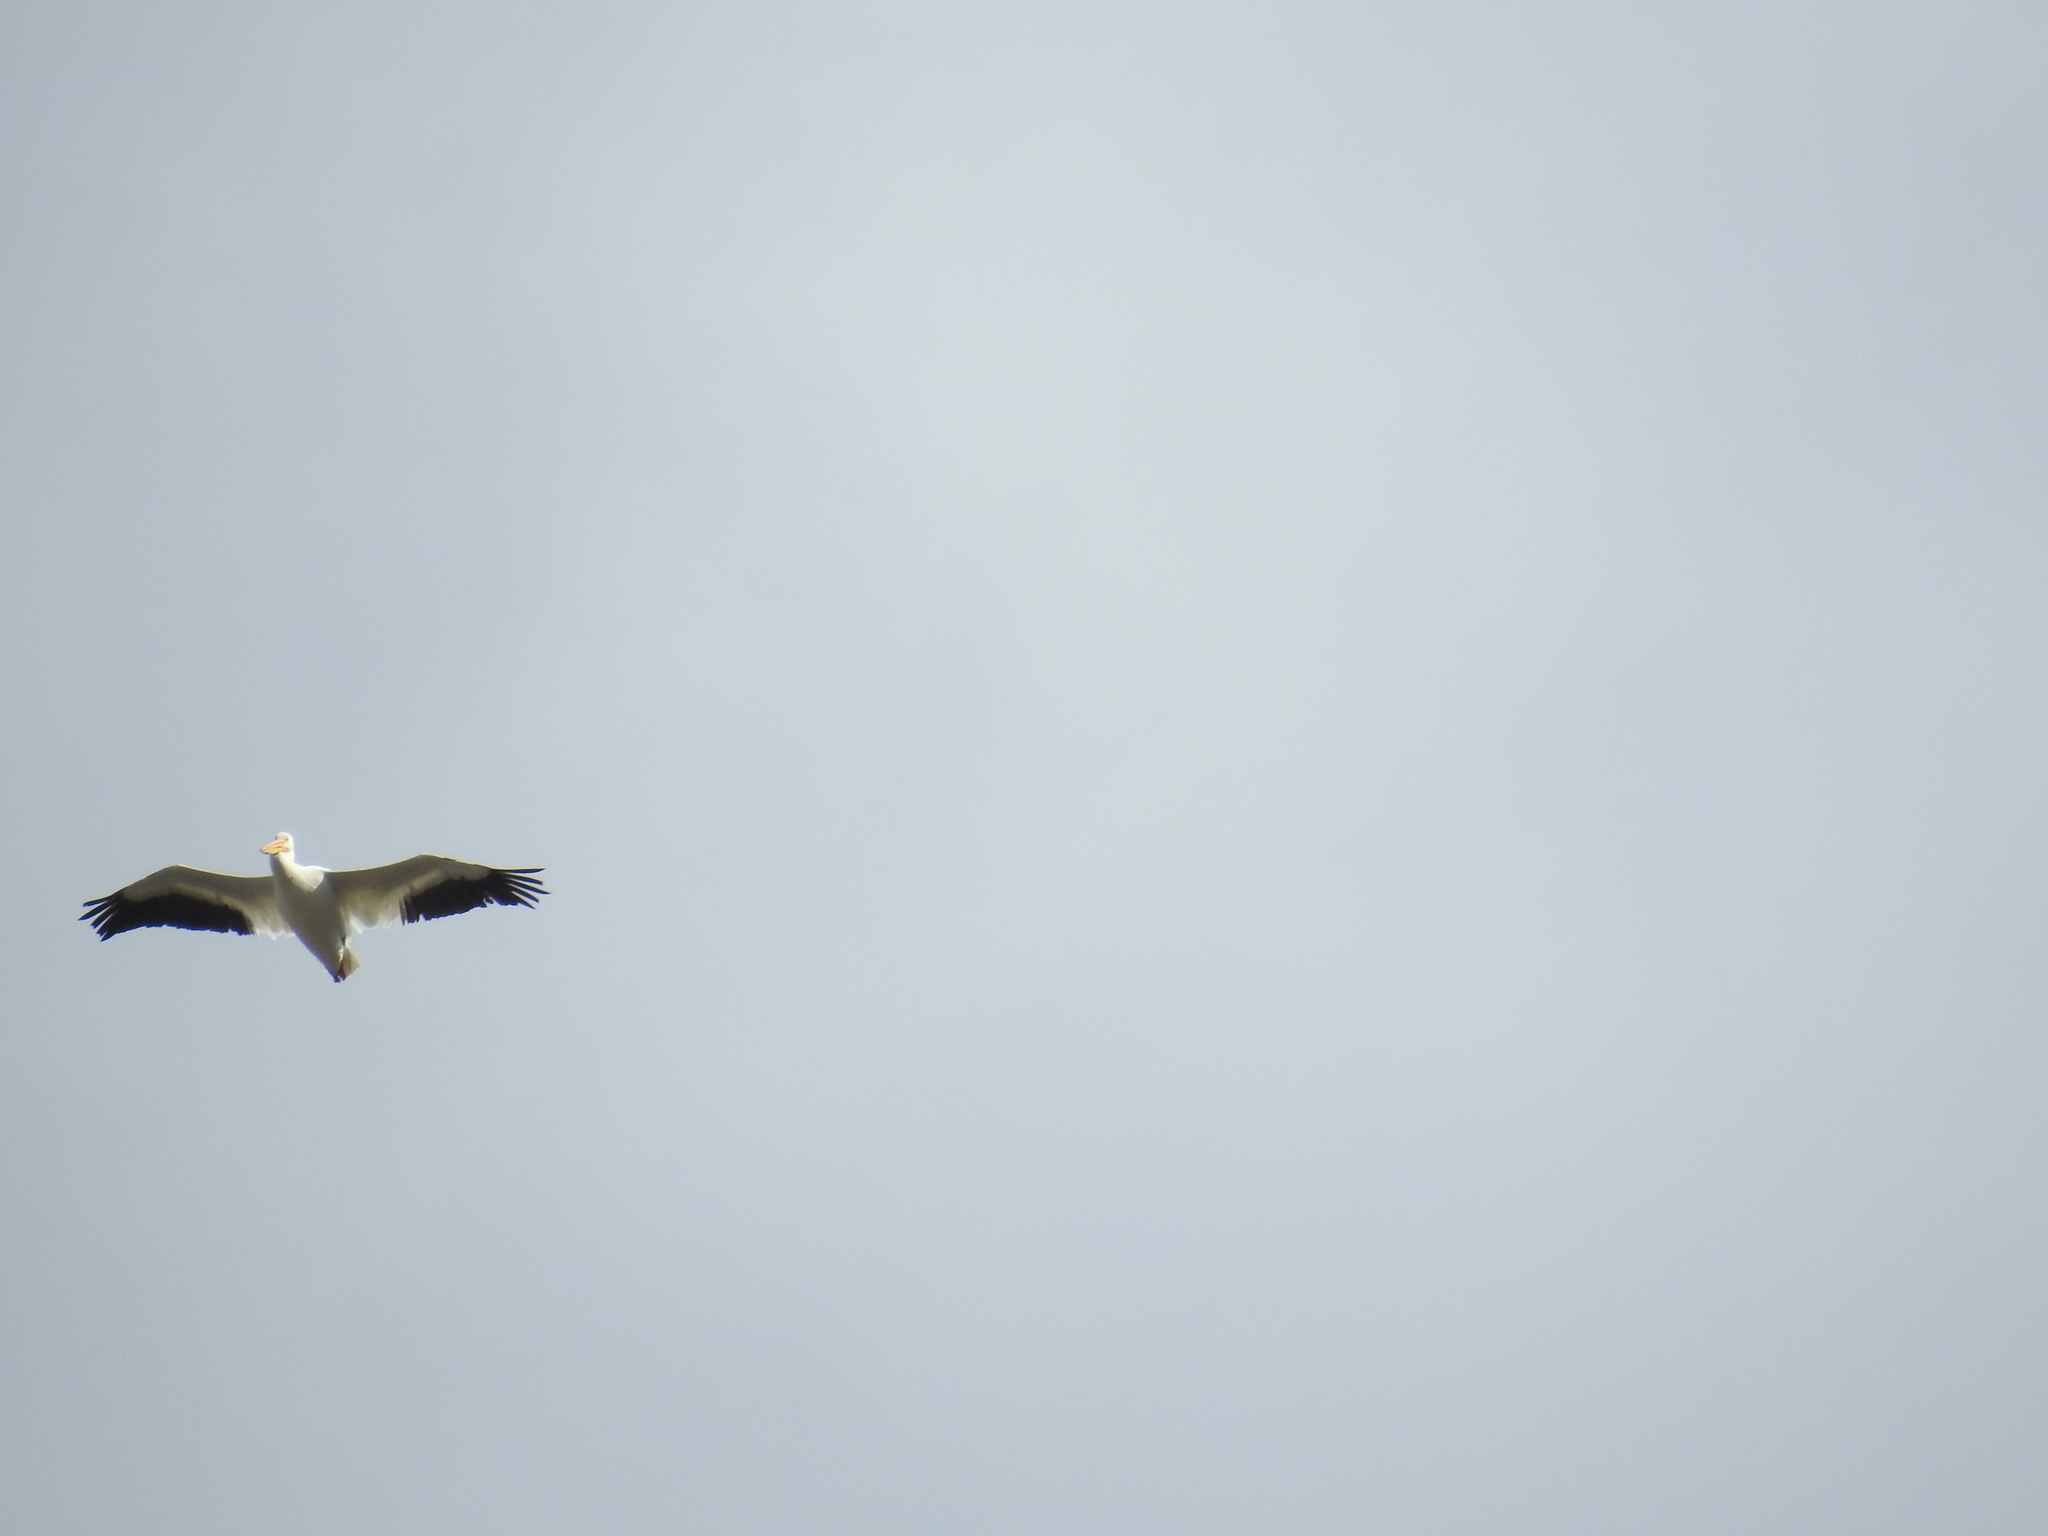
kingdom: Animalia
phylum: Chordata
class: Aves
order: Pelecaniformes
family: Pelecanidae
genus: Pelecanus
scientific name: Pelecanus erythrorhynchos
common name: American white pelican
